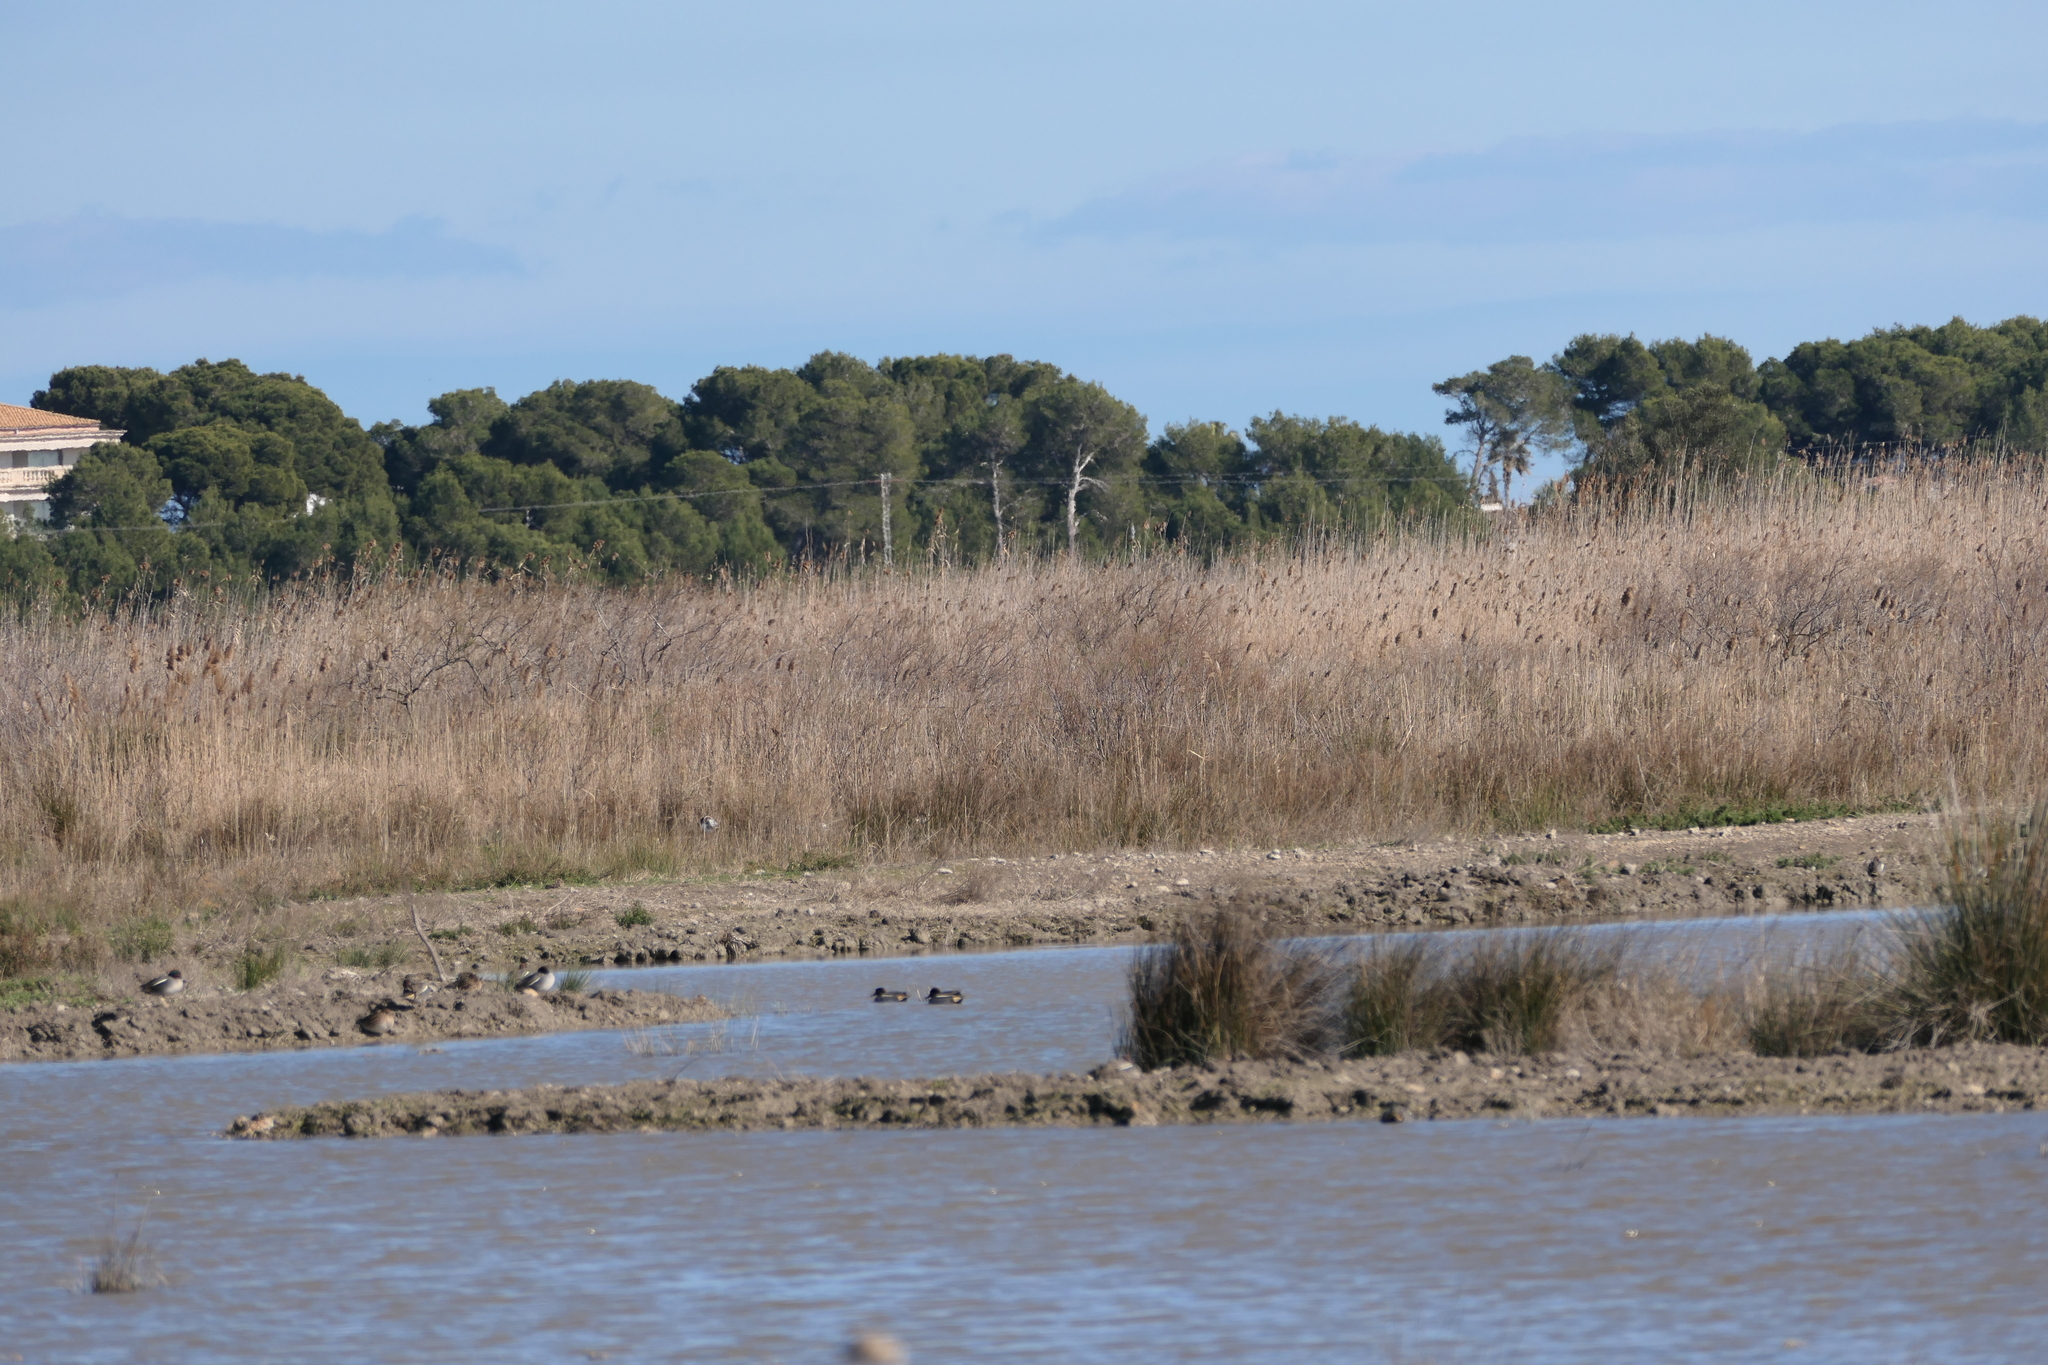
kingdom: Animalia
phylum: Chordata
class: Aves
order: Anseriformes
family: Anatidae
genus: Anas
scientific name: Anas crecca
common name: Eurasian teal
